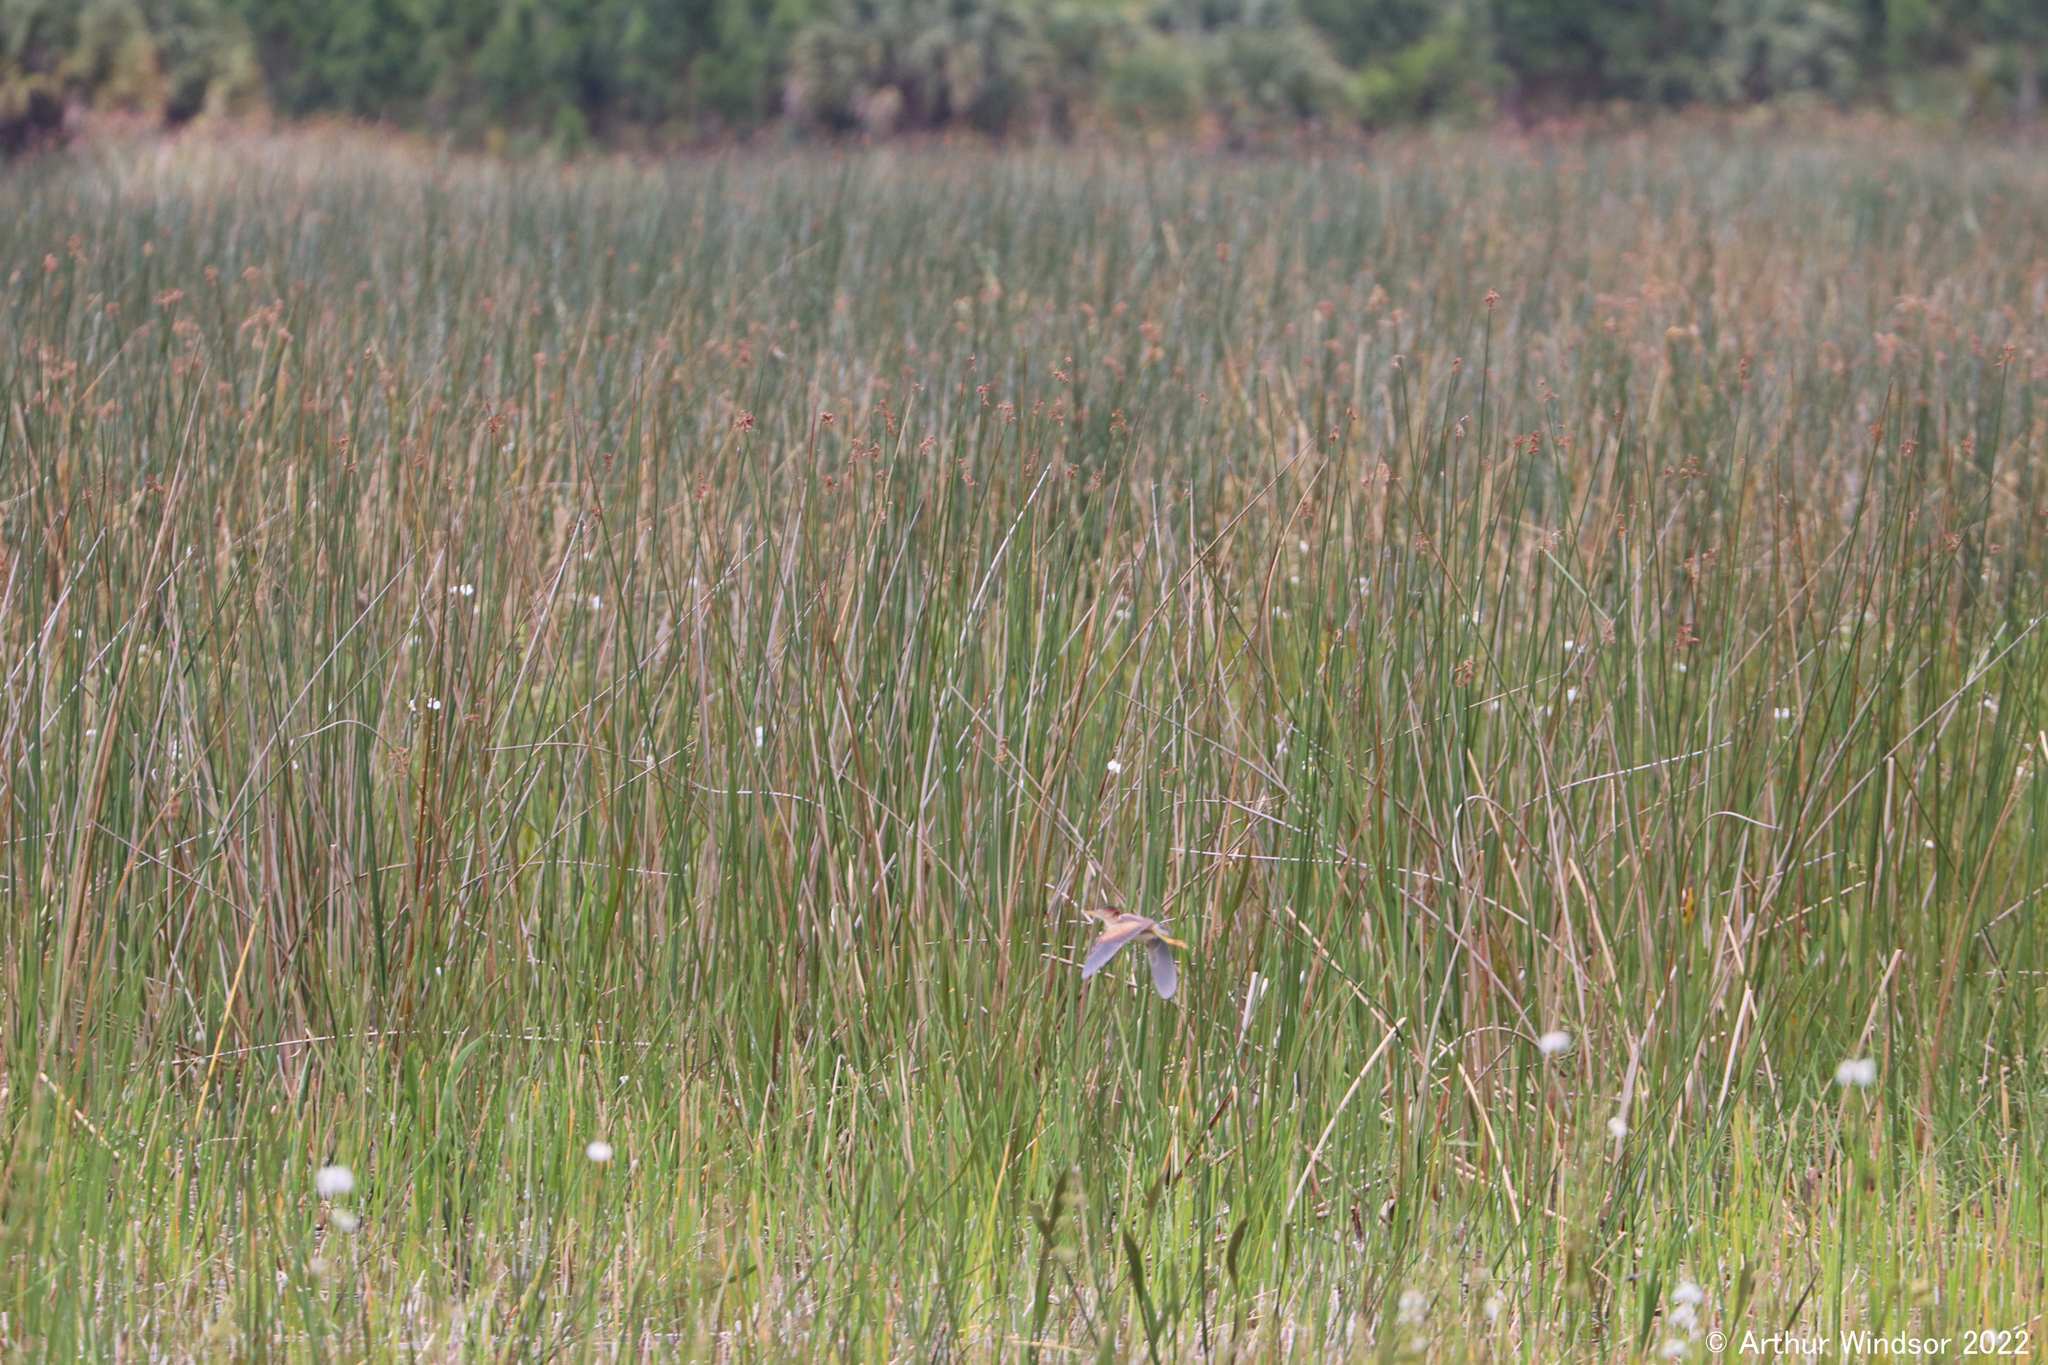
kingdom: Animalia
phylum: Chordata
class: Aves
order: Pelecaniformes
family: Ardeidae
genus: Ixobrychus
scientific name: Ixobrychus exilis
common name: Least bittern
